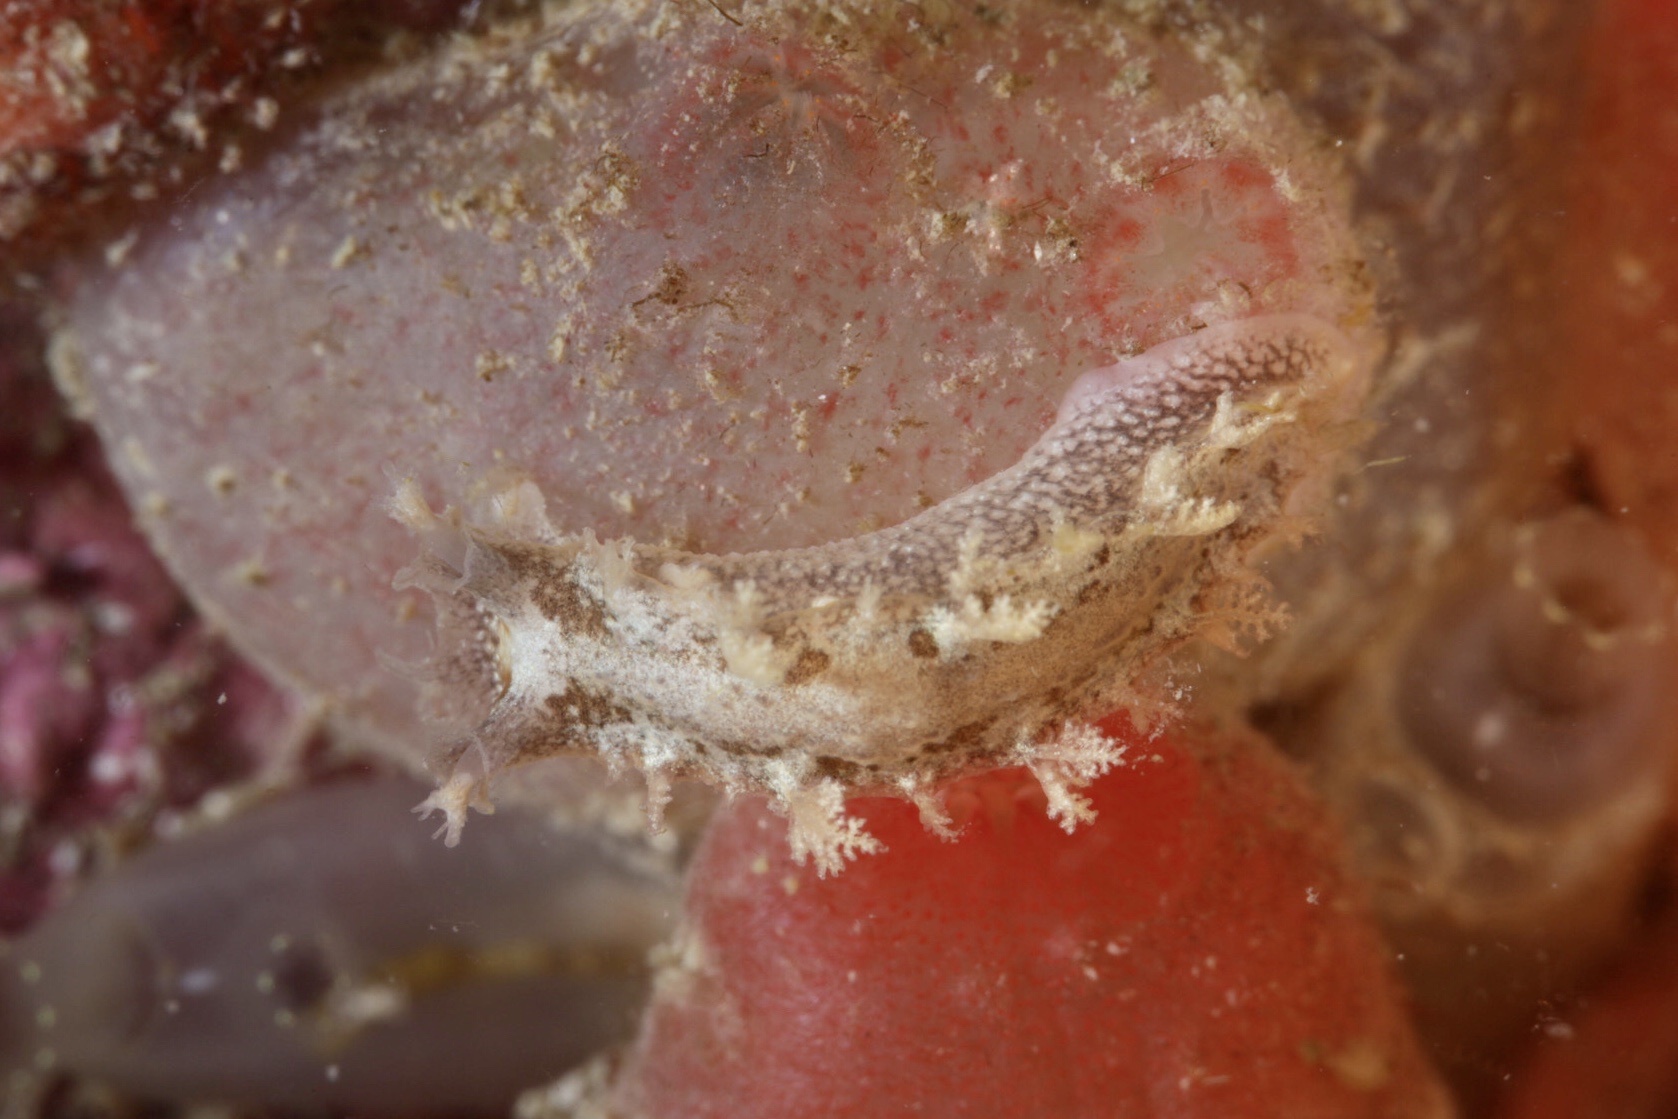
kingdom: Animalia
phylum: Mollusca
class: Gastropoda
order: Nudibranchia
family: Tritoniidae
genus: Duvaucelia
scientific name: Duvaucelia plebeia
